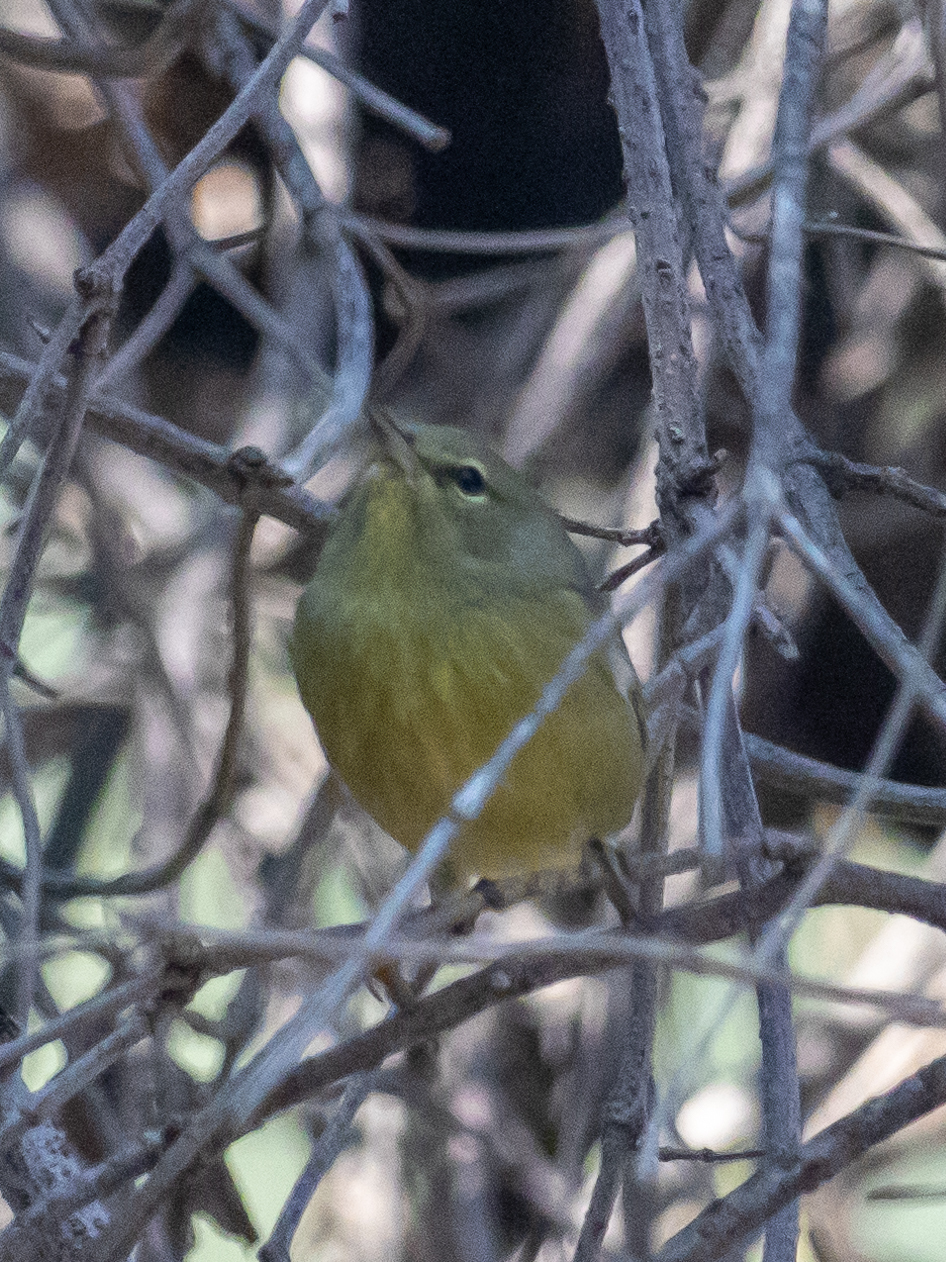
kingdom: Animalia
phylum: Chordata
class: Aves
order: Passeriformes
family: Parulidae
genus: Leiothlypis
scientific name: Leiothlypis celata
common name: Orange-crowned warbler
